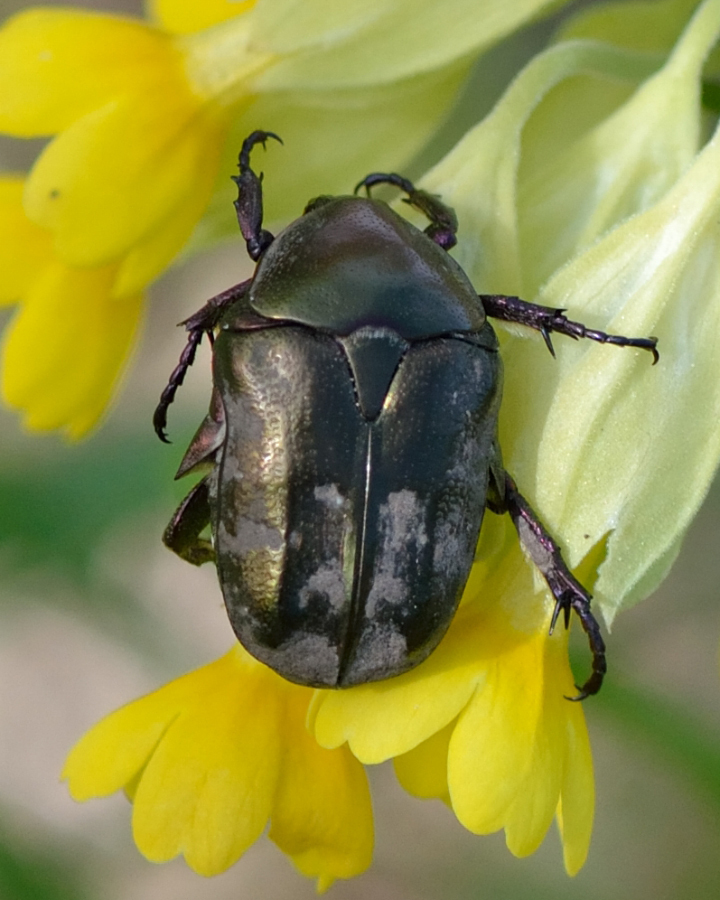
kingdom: Animalia
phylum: Arthropoda
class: Insecta
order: Coleoptera
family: Scarabaeidae
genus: Protaetia
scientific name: Protaetia cuprea
